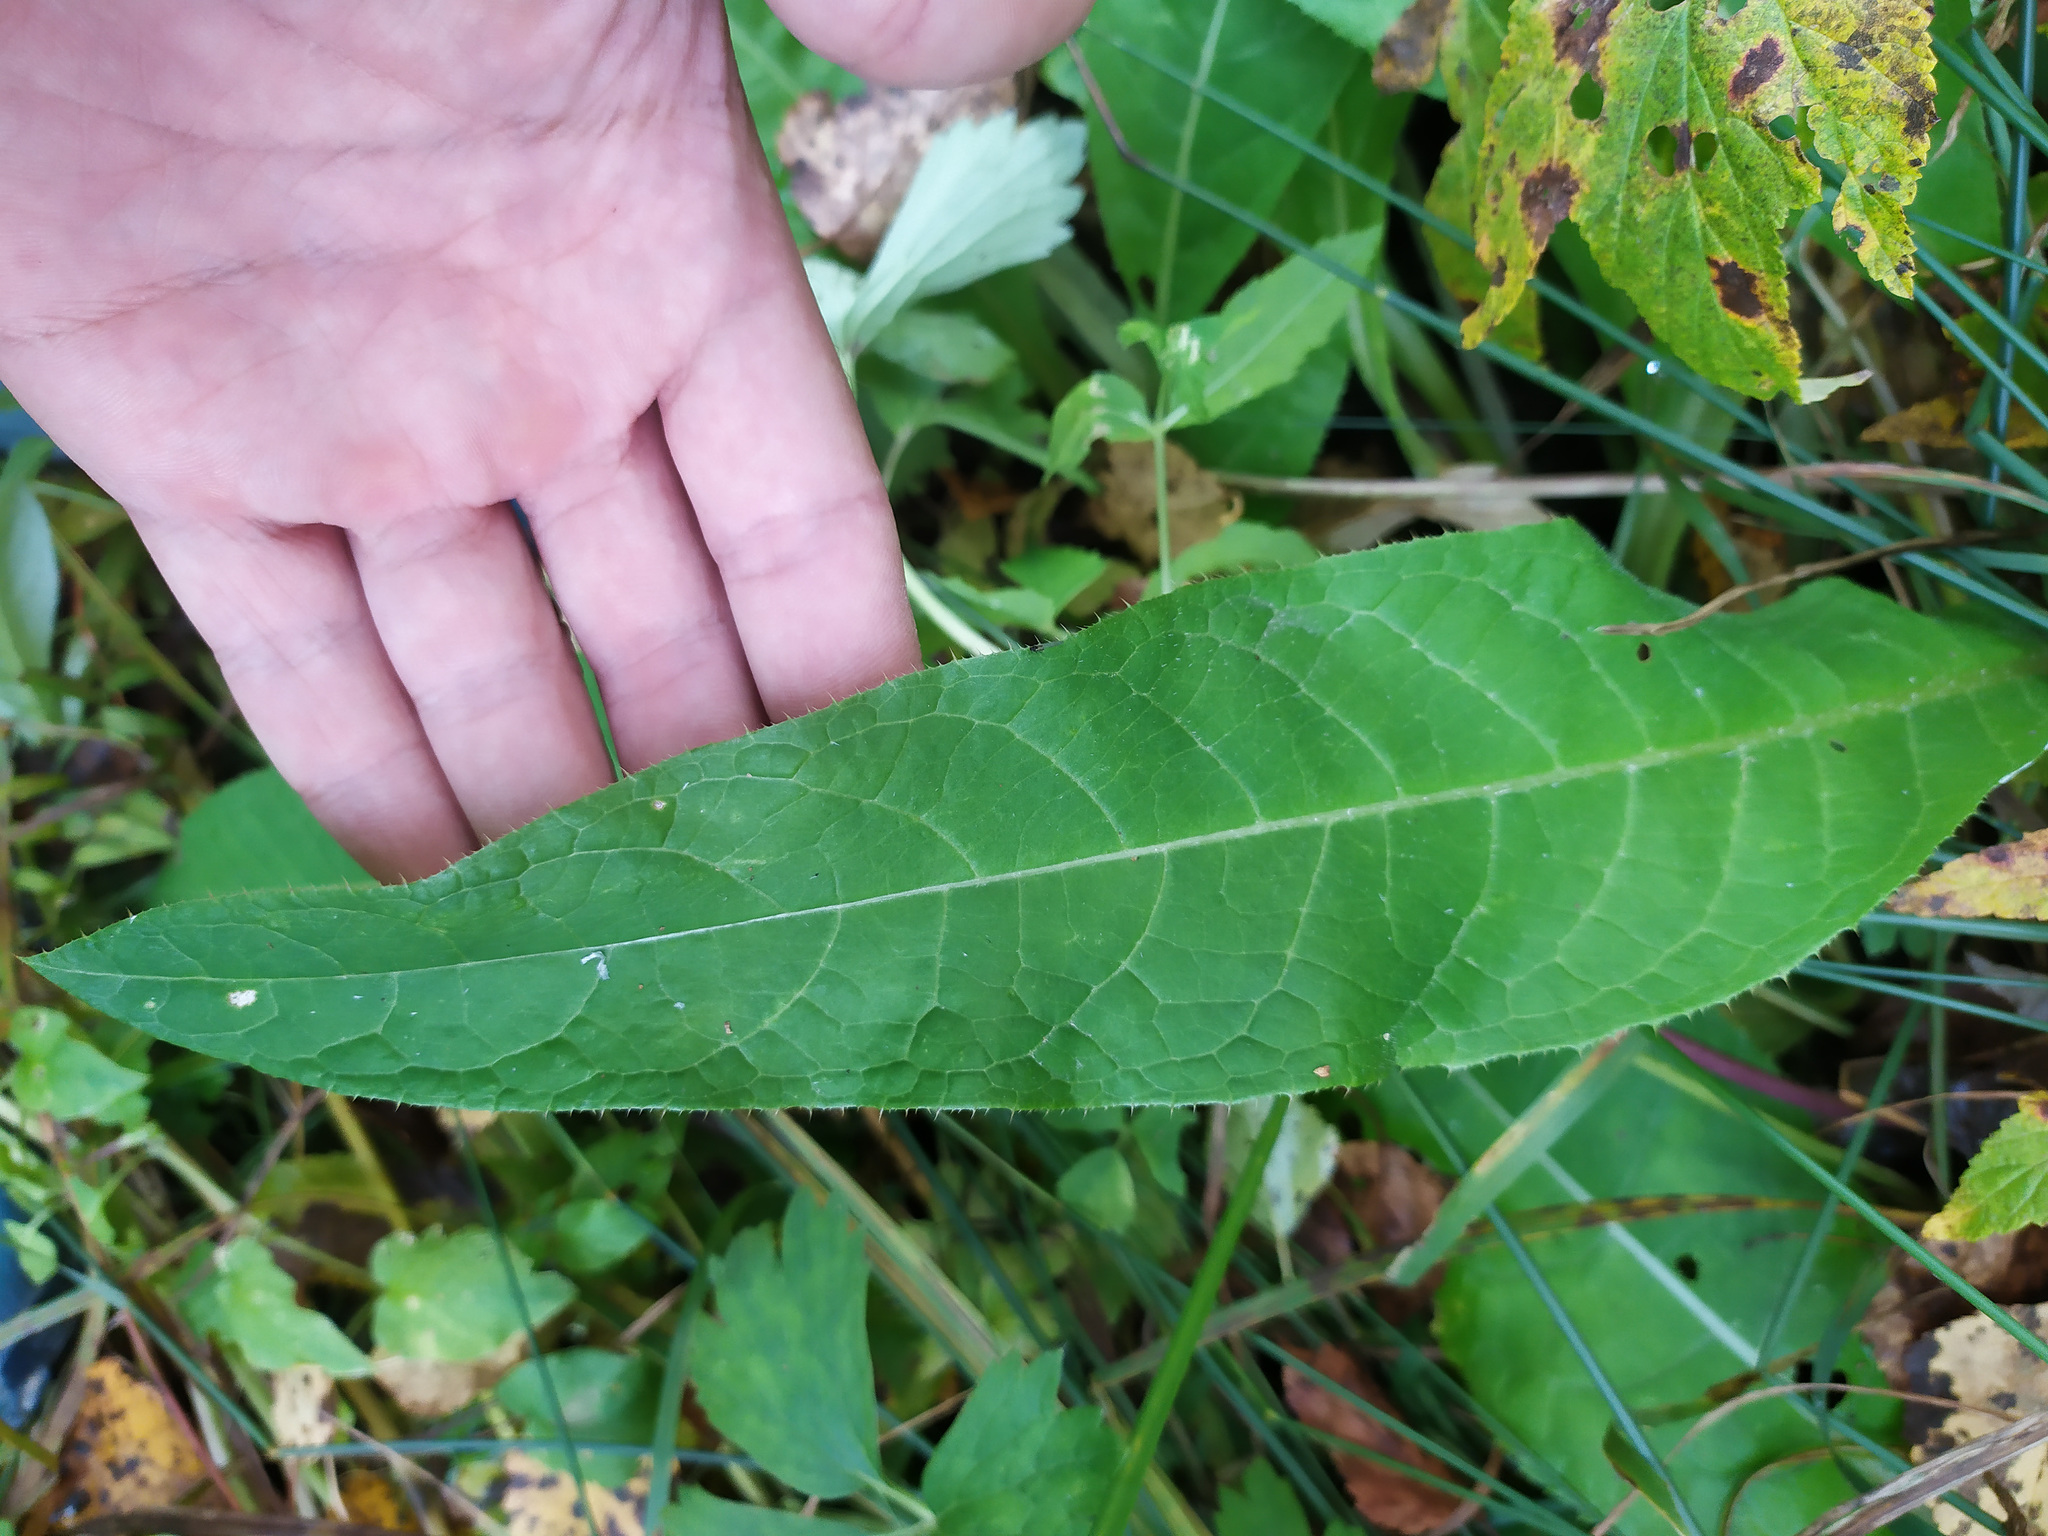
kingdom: Plantae
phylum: Tracheophyta
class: Magnoliopsida
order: Asterales
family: Asteraceae
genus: Cirsium
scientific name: Cirsium heterophyllum
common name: Melancholy thistle
